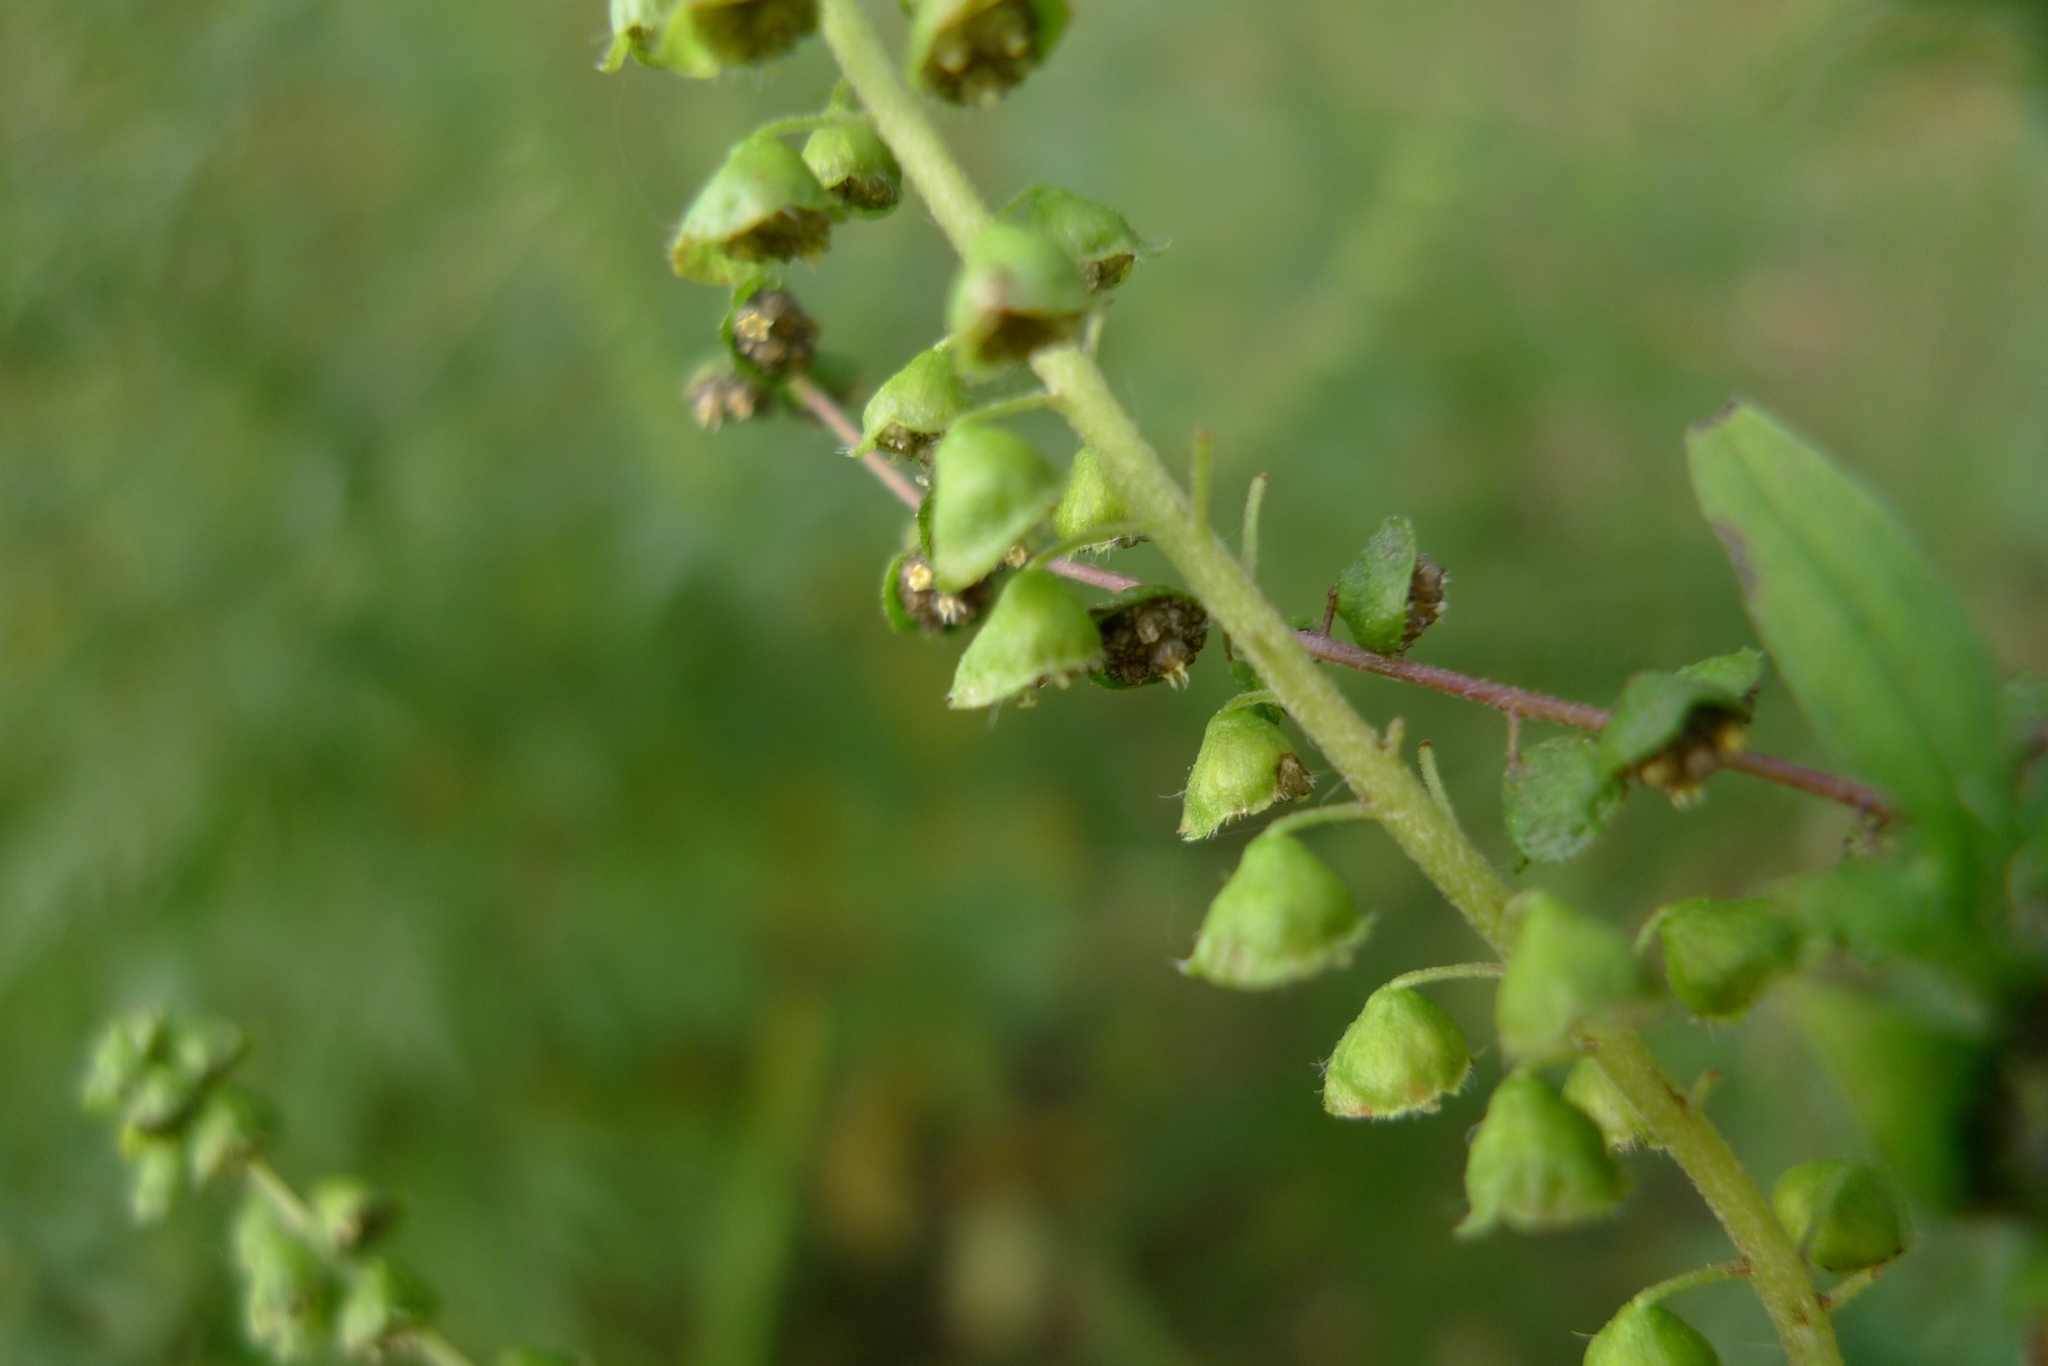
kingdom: Plantae
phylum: Tracheophyta
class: Magnoliopsida
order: Asterales
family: Asteraceae
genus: Ambrosia
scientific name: Ambrosia artemisiifolia
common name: Annual ragweed
